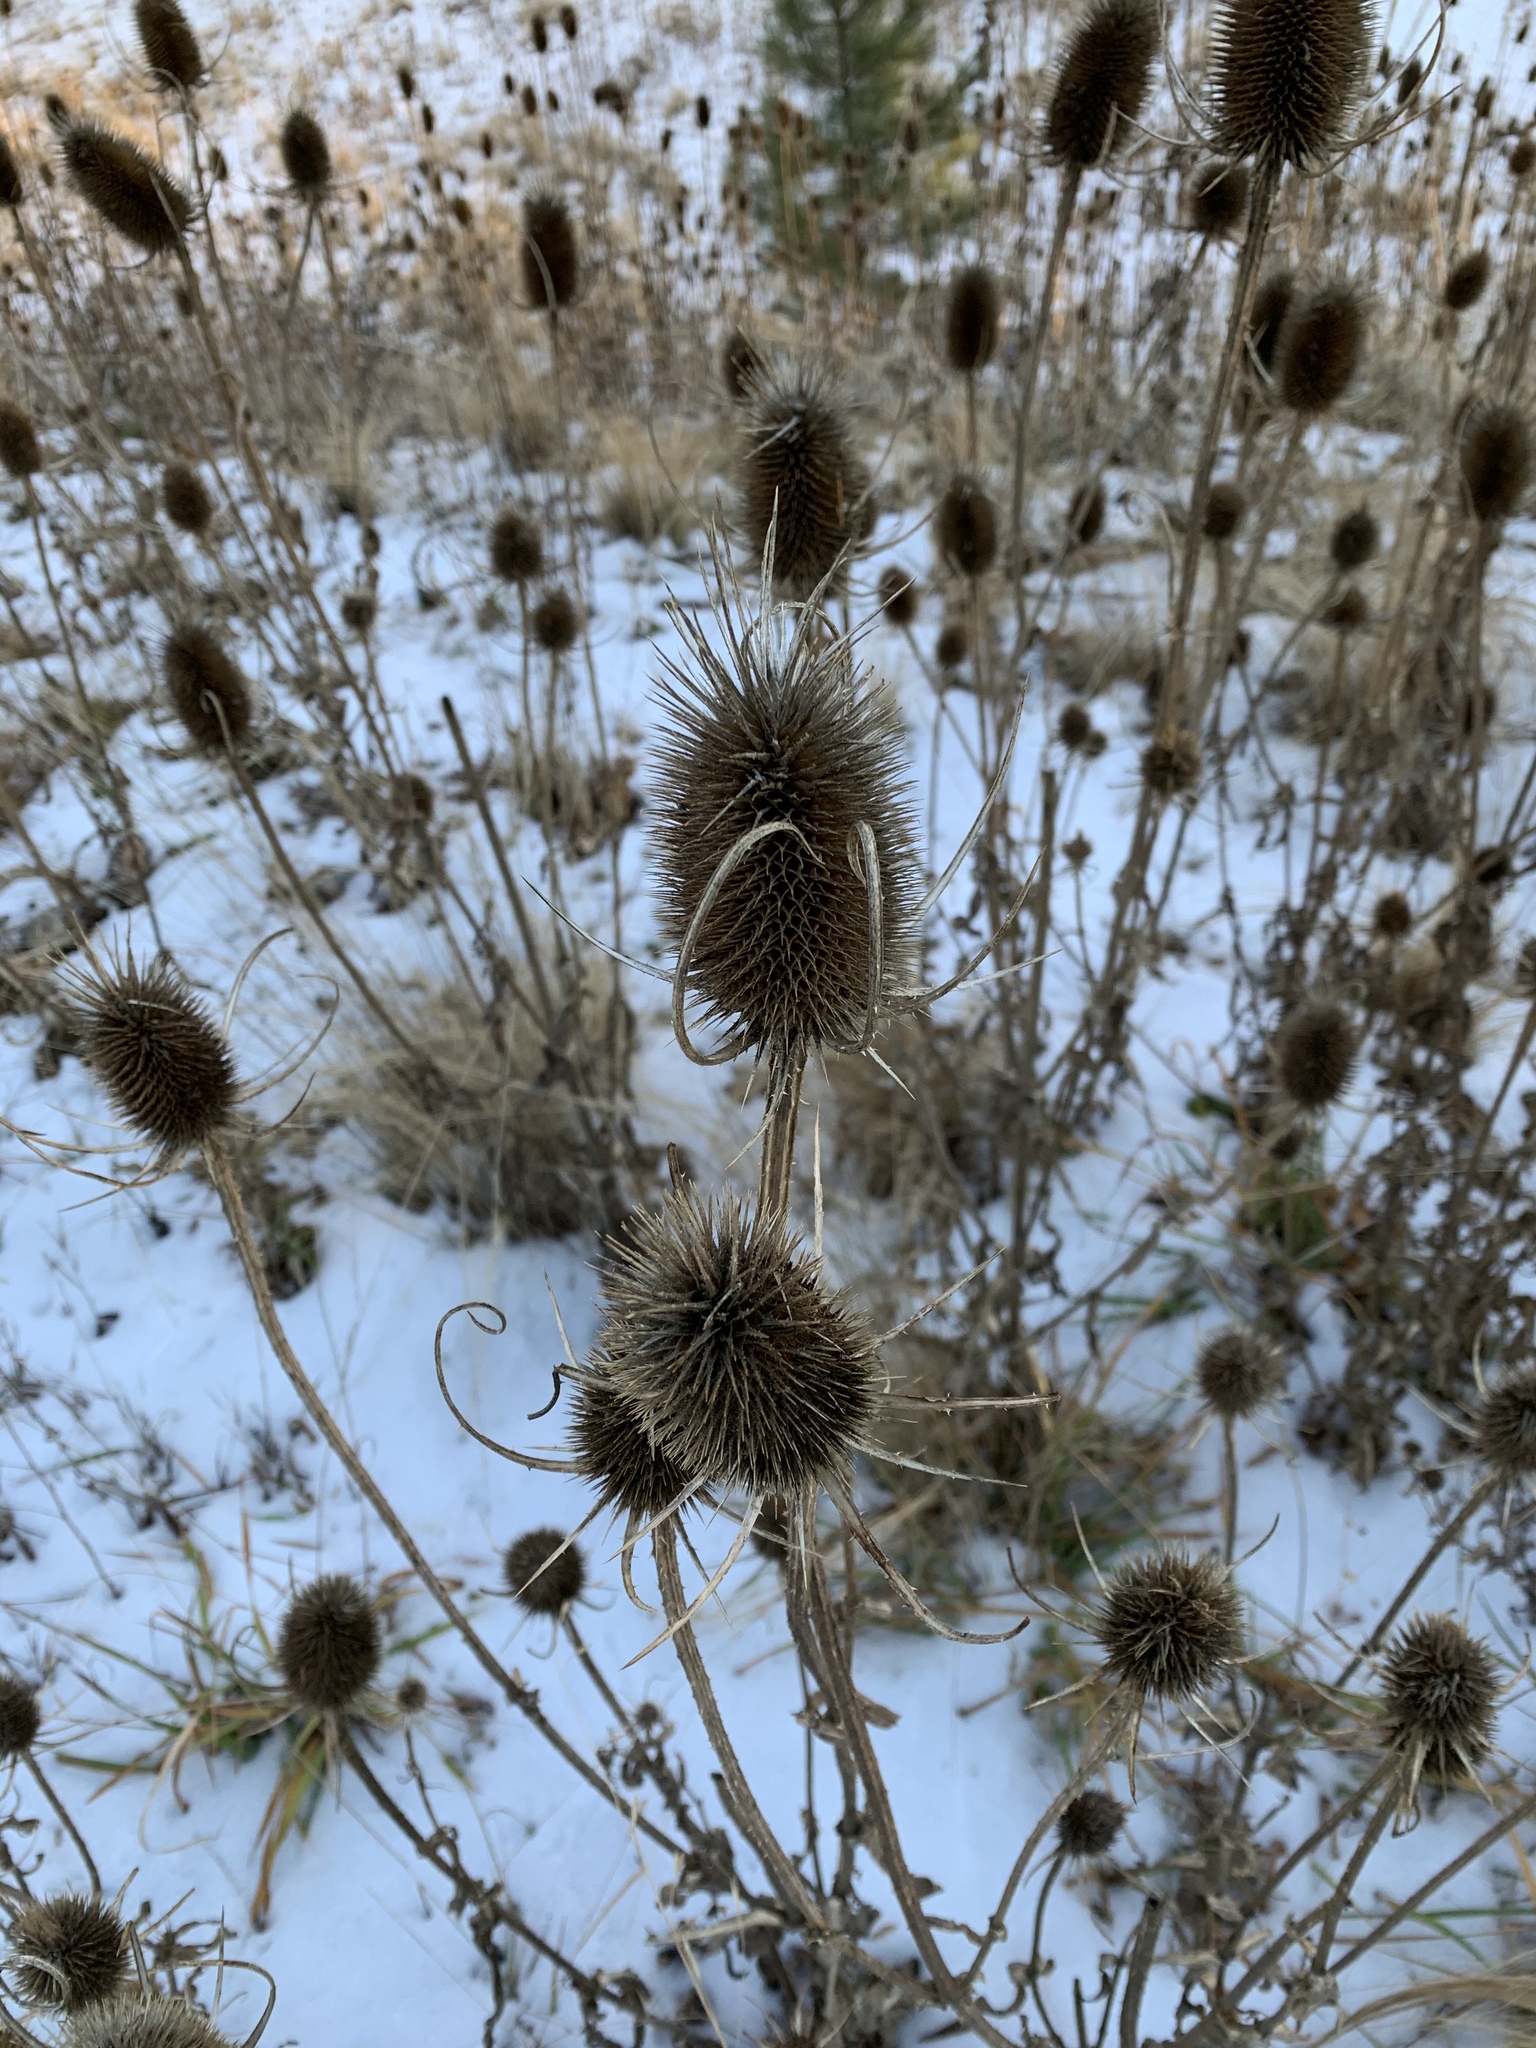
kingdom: Plantae
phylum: Tracheophyta
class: Magnoliopsida
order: Dipsacales
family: Caprifoliaceae
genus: Dipsacus
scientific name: Dipsacus fullonum
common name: Teasel
